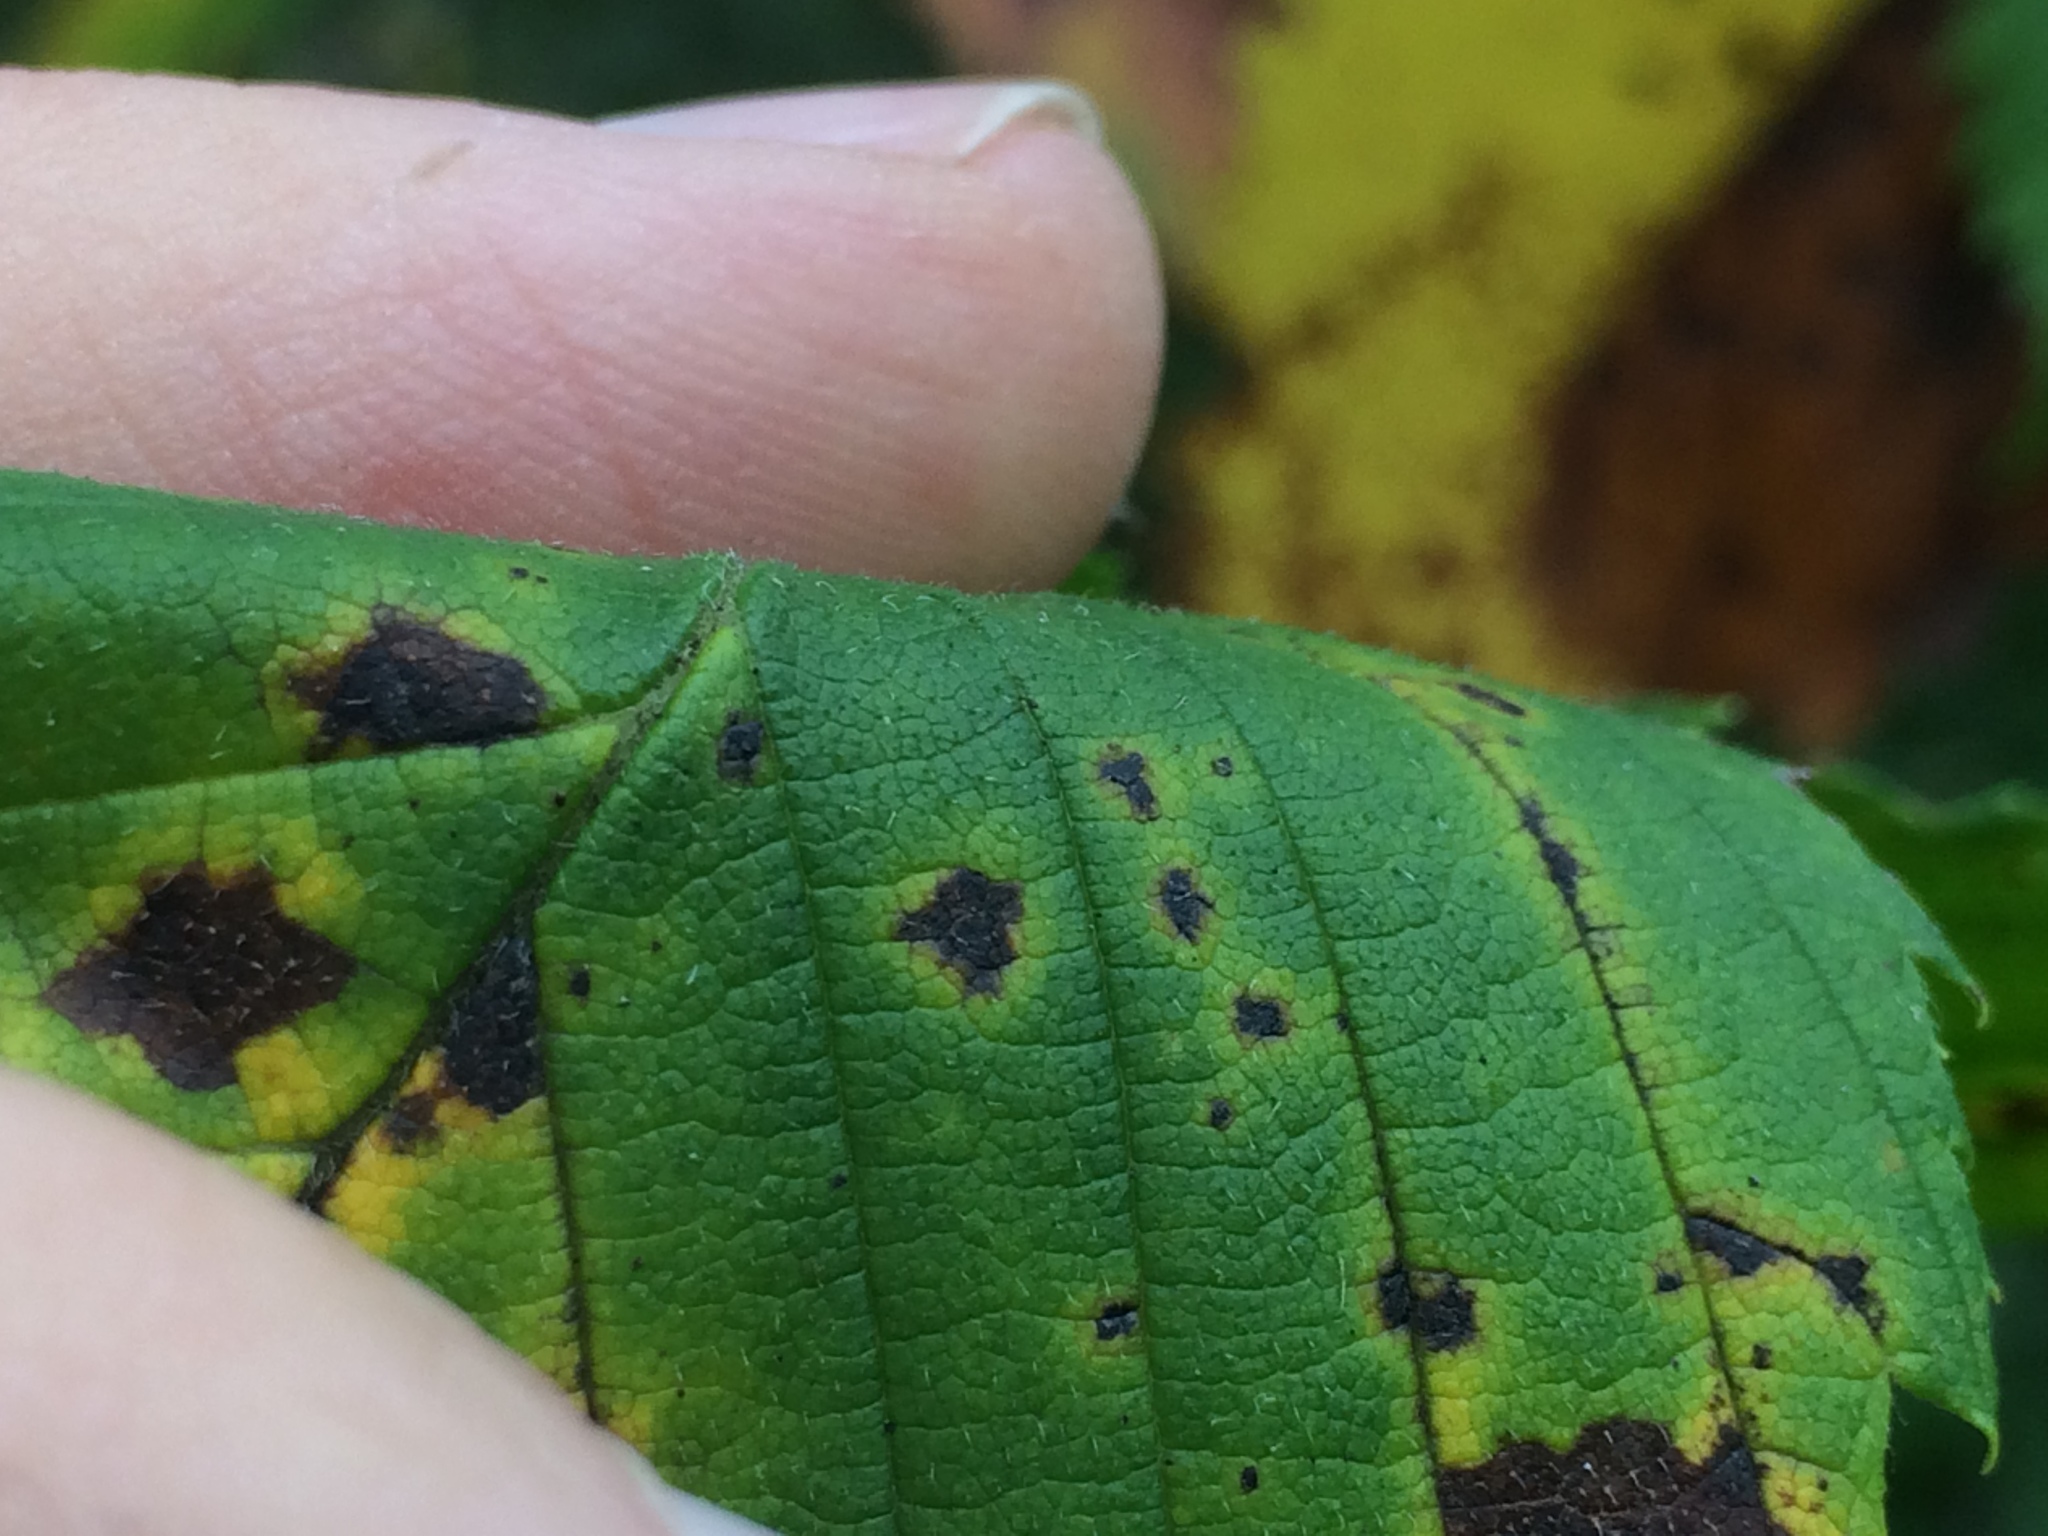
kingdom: Plantae
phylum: Tracheophyta
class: Magnoliopsida
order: Rosales
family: Ulmaceae
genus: Ulmus
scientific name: Ulmus americana
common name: American elm
